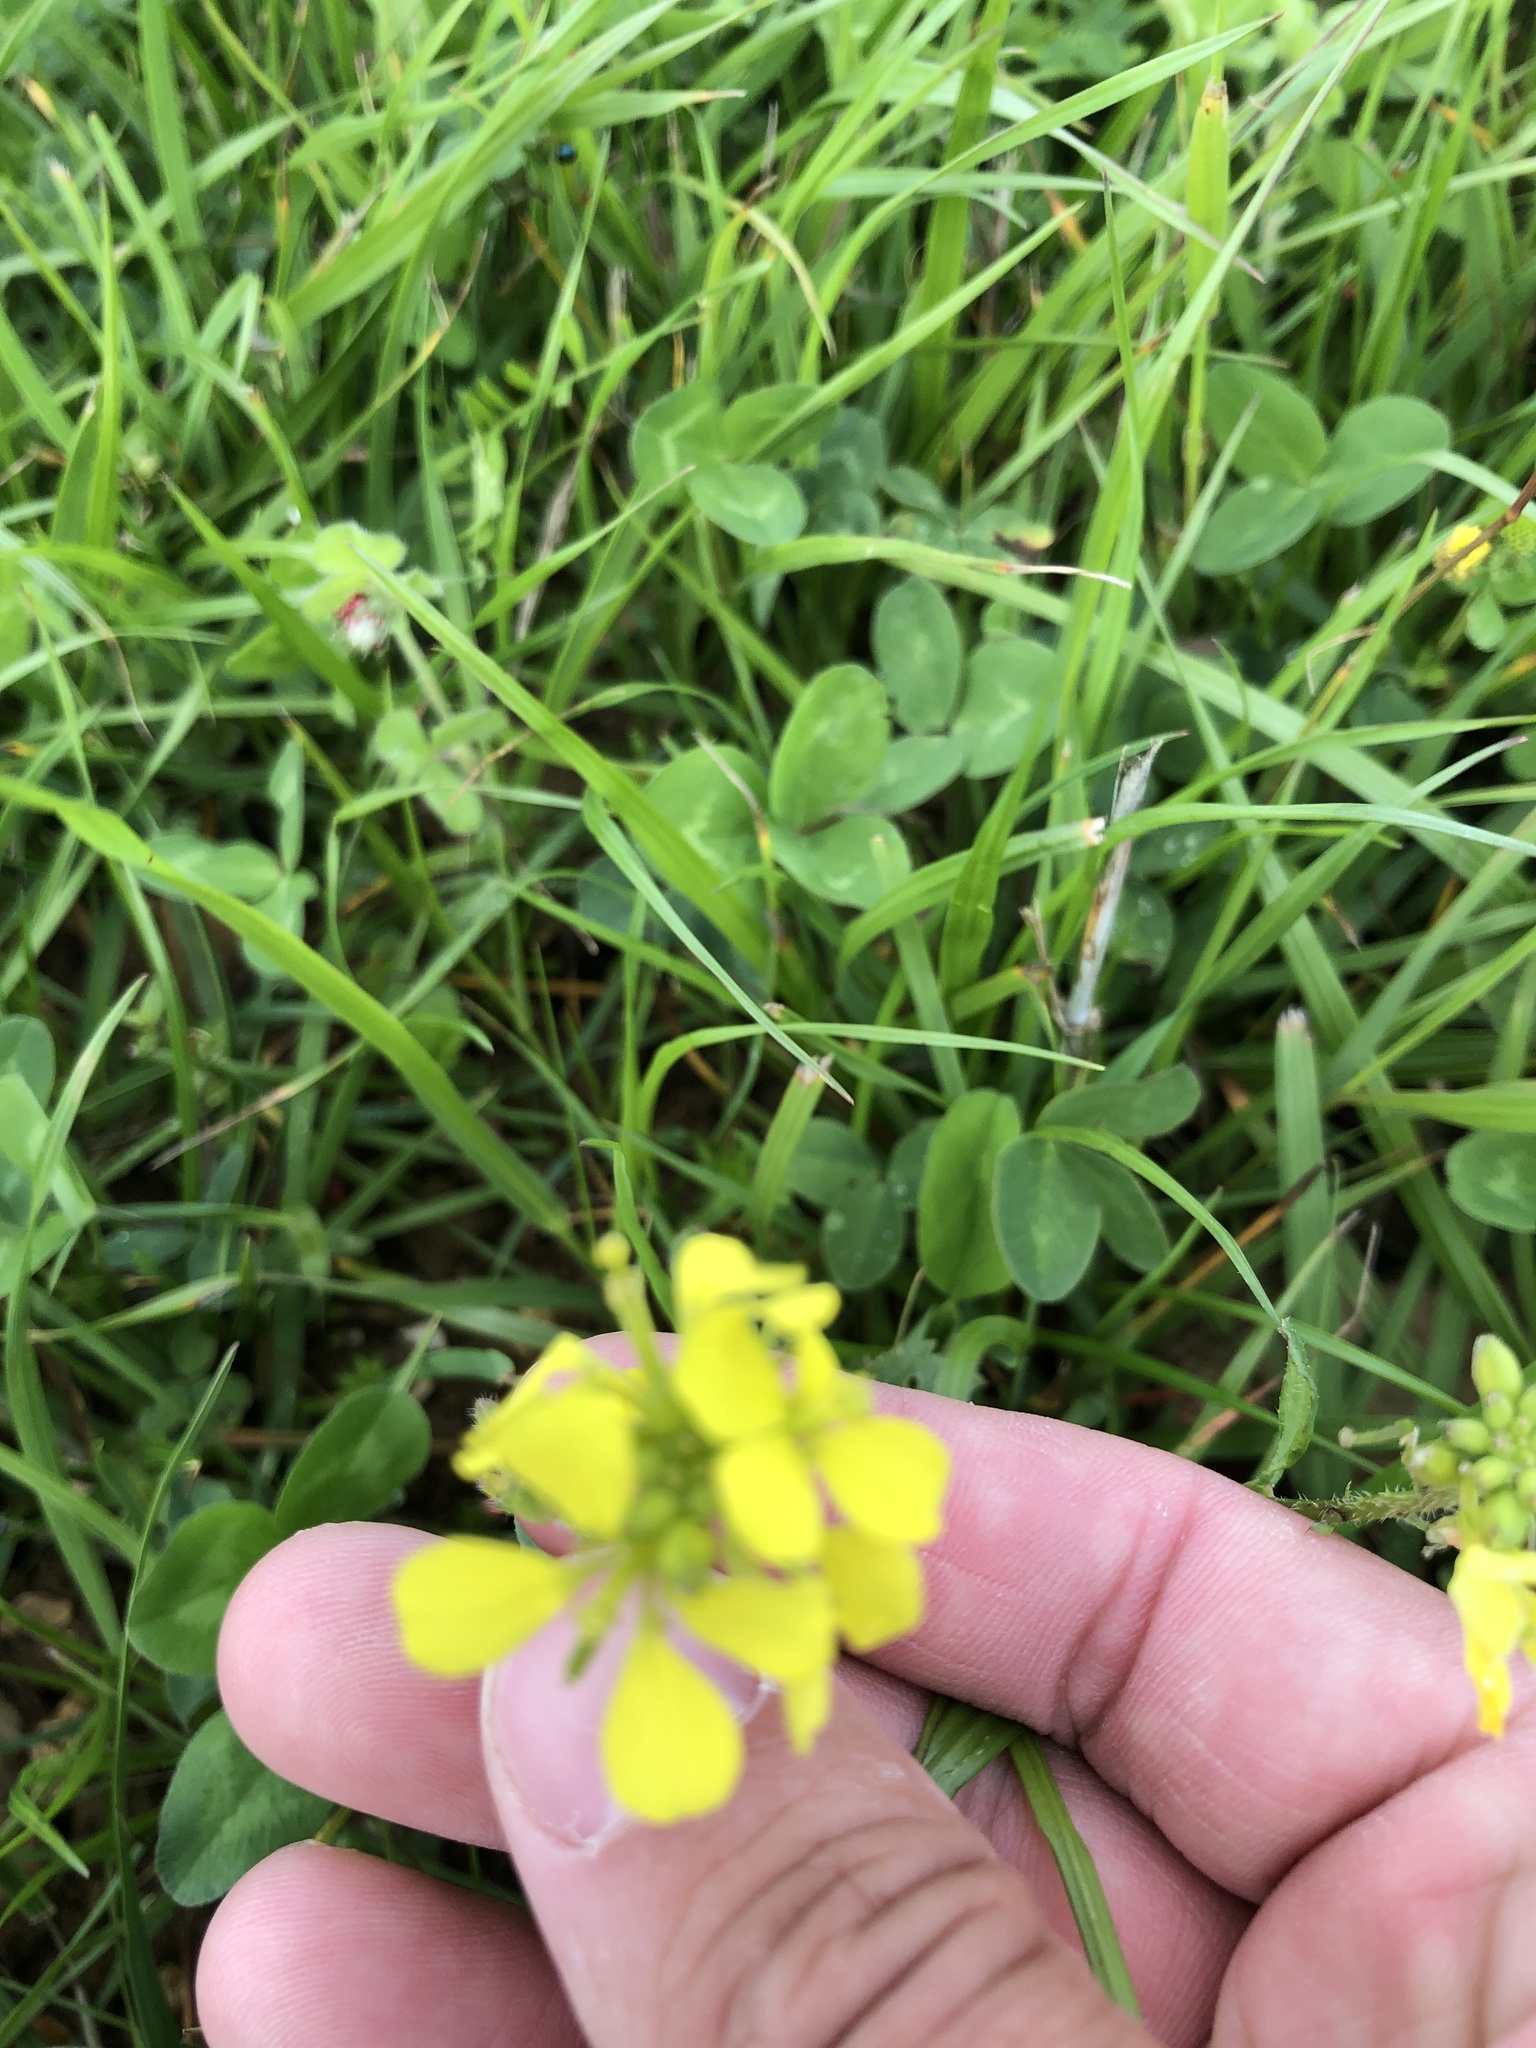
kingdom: Plantae
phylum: Tracheophyta
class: Magnoliopsida
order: Brassicales
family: Brassicaceae
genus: Sinapis
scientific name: Sinapis arvensis
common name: Charlock
